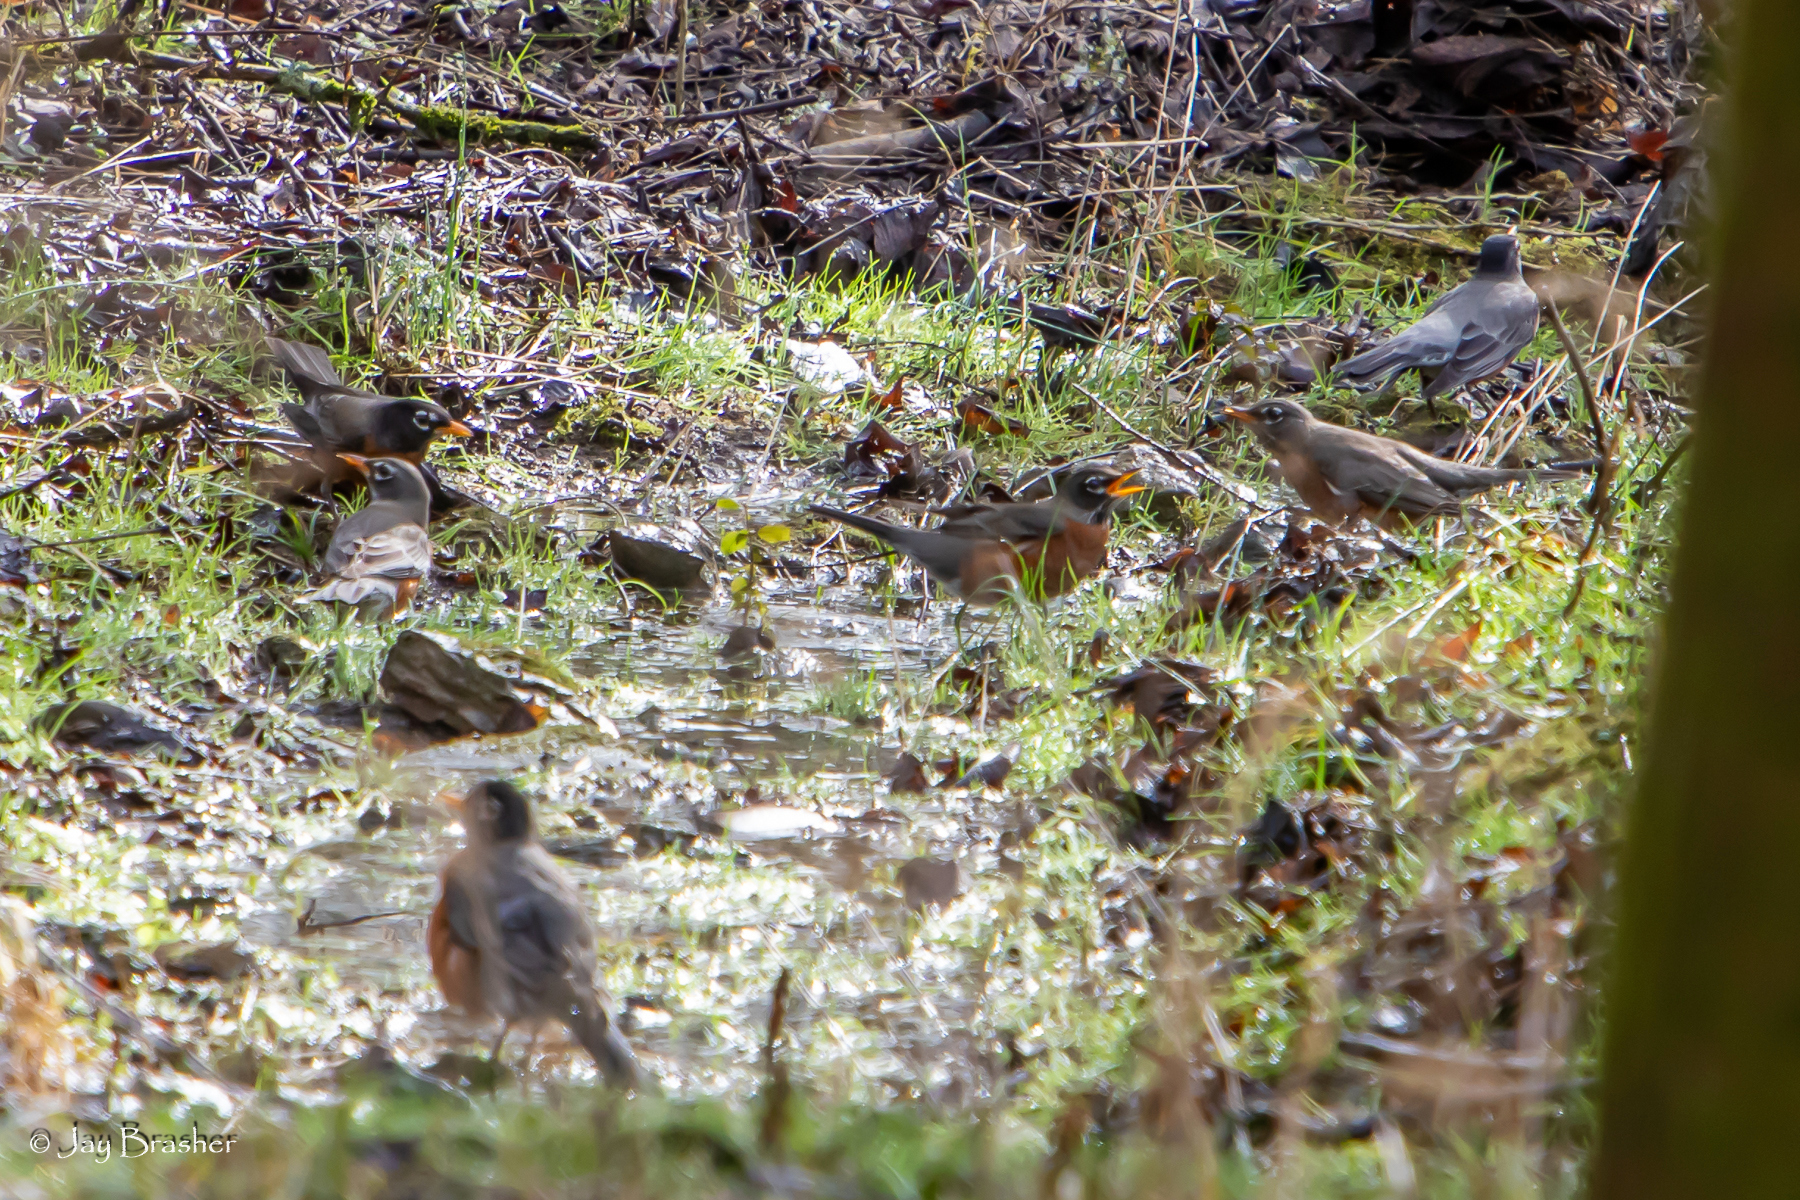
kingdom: Animalia
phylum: Chordata
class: Aves
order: Passeriformes
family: Turdidae
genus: Turdus
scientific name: Turdus migratorius
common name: American robin
